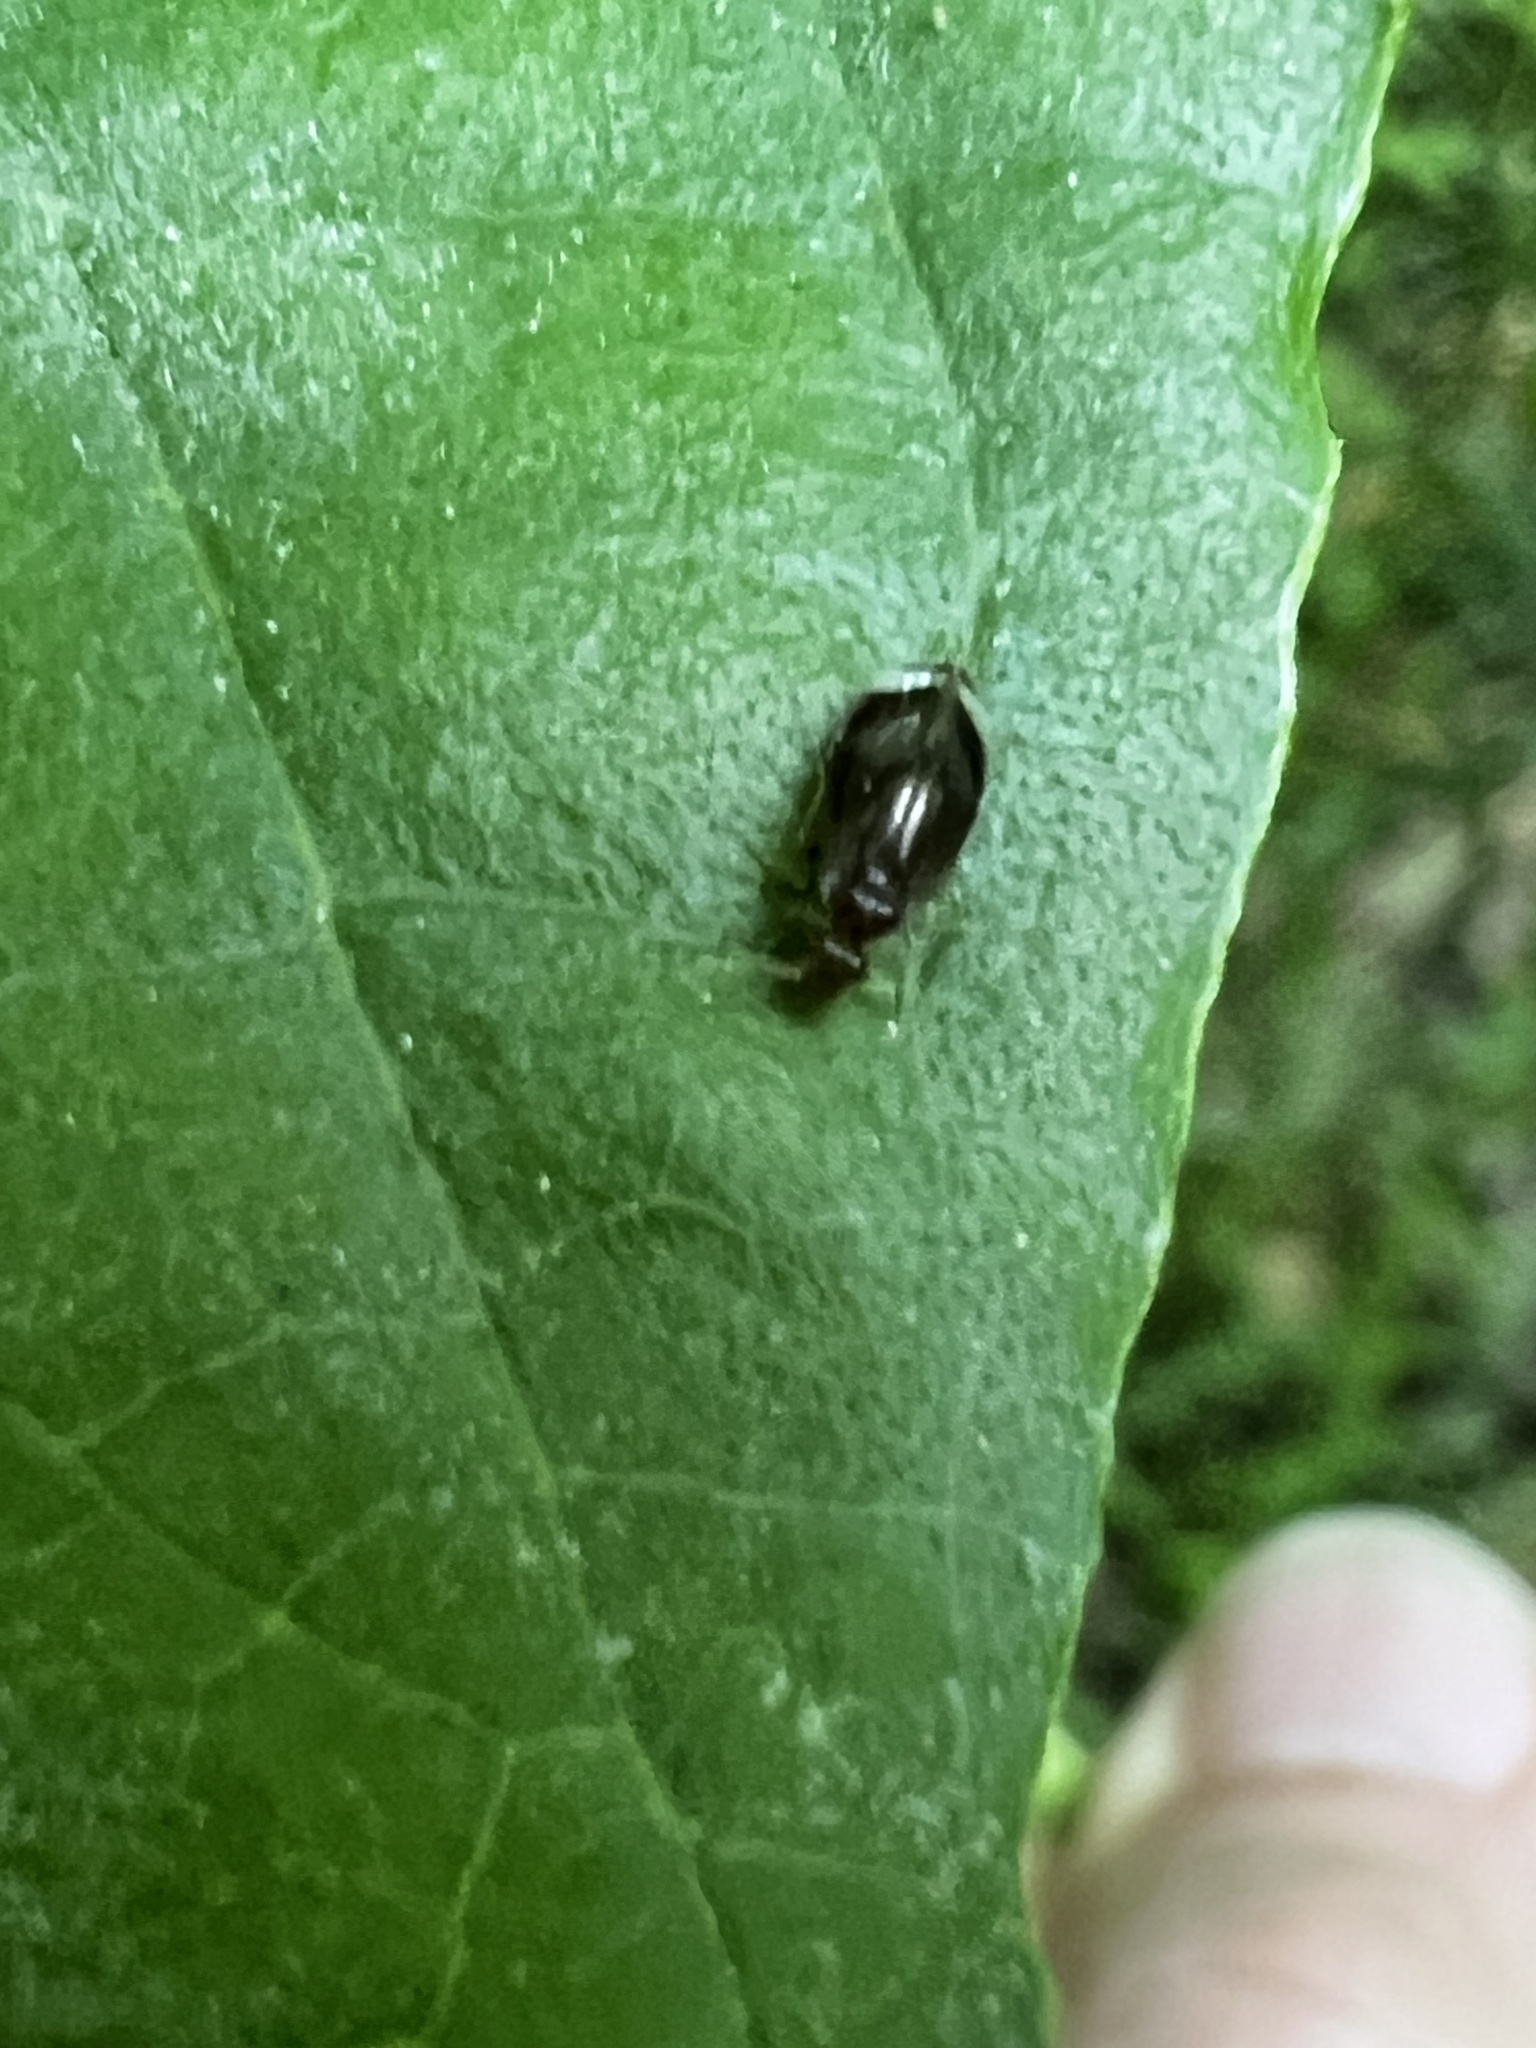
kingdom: Animalia
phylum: Arthropoda
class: Insecta
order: Psocodea
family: Amphipsocidae
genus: Polypsocus
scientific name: Polypsocus corruptus
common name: Corrupt barklouse
